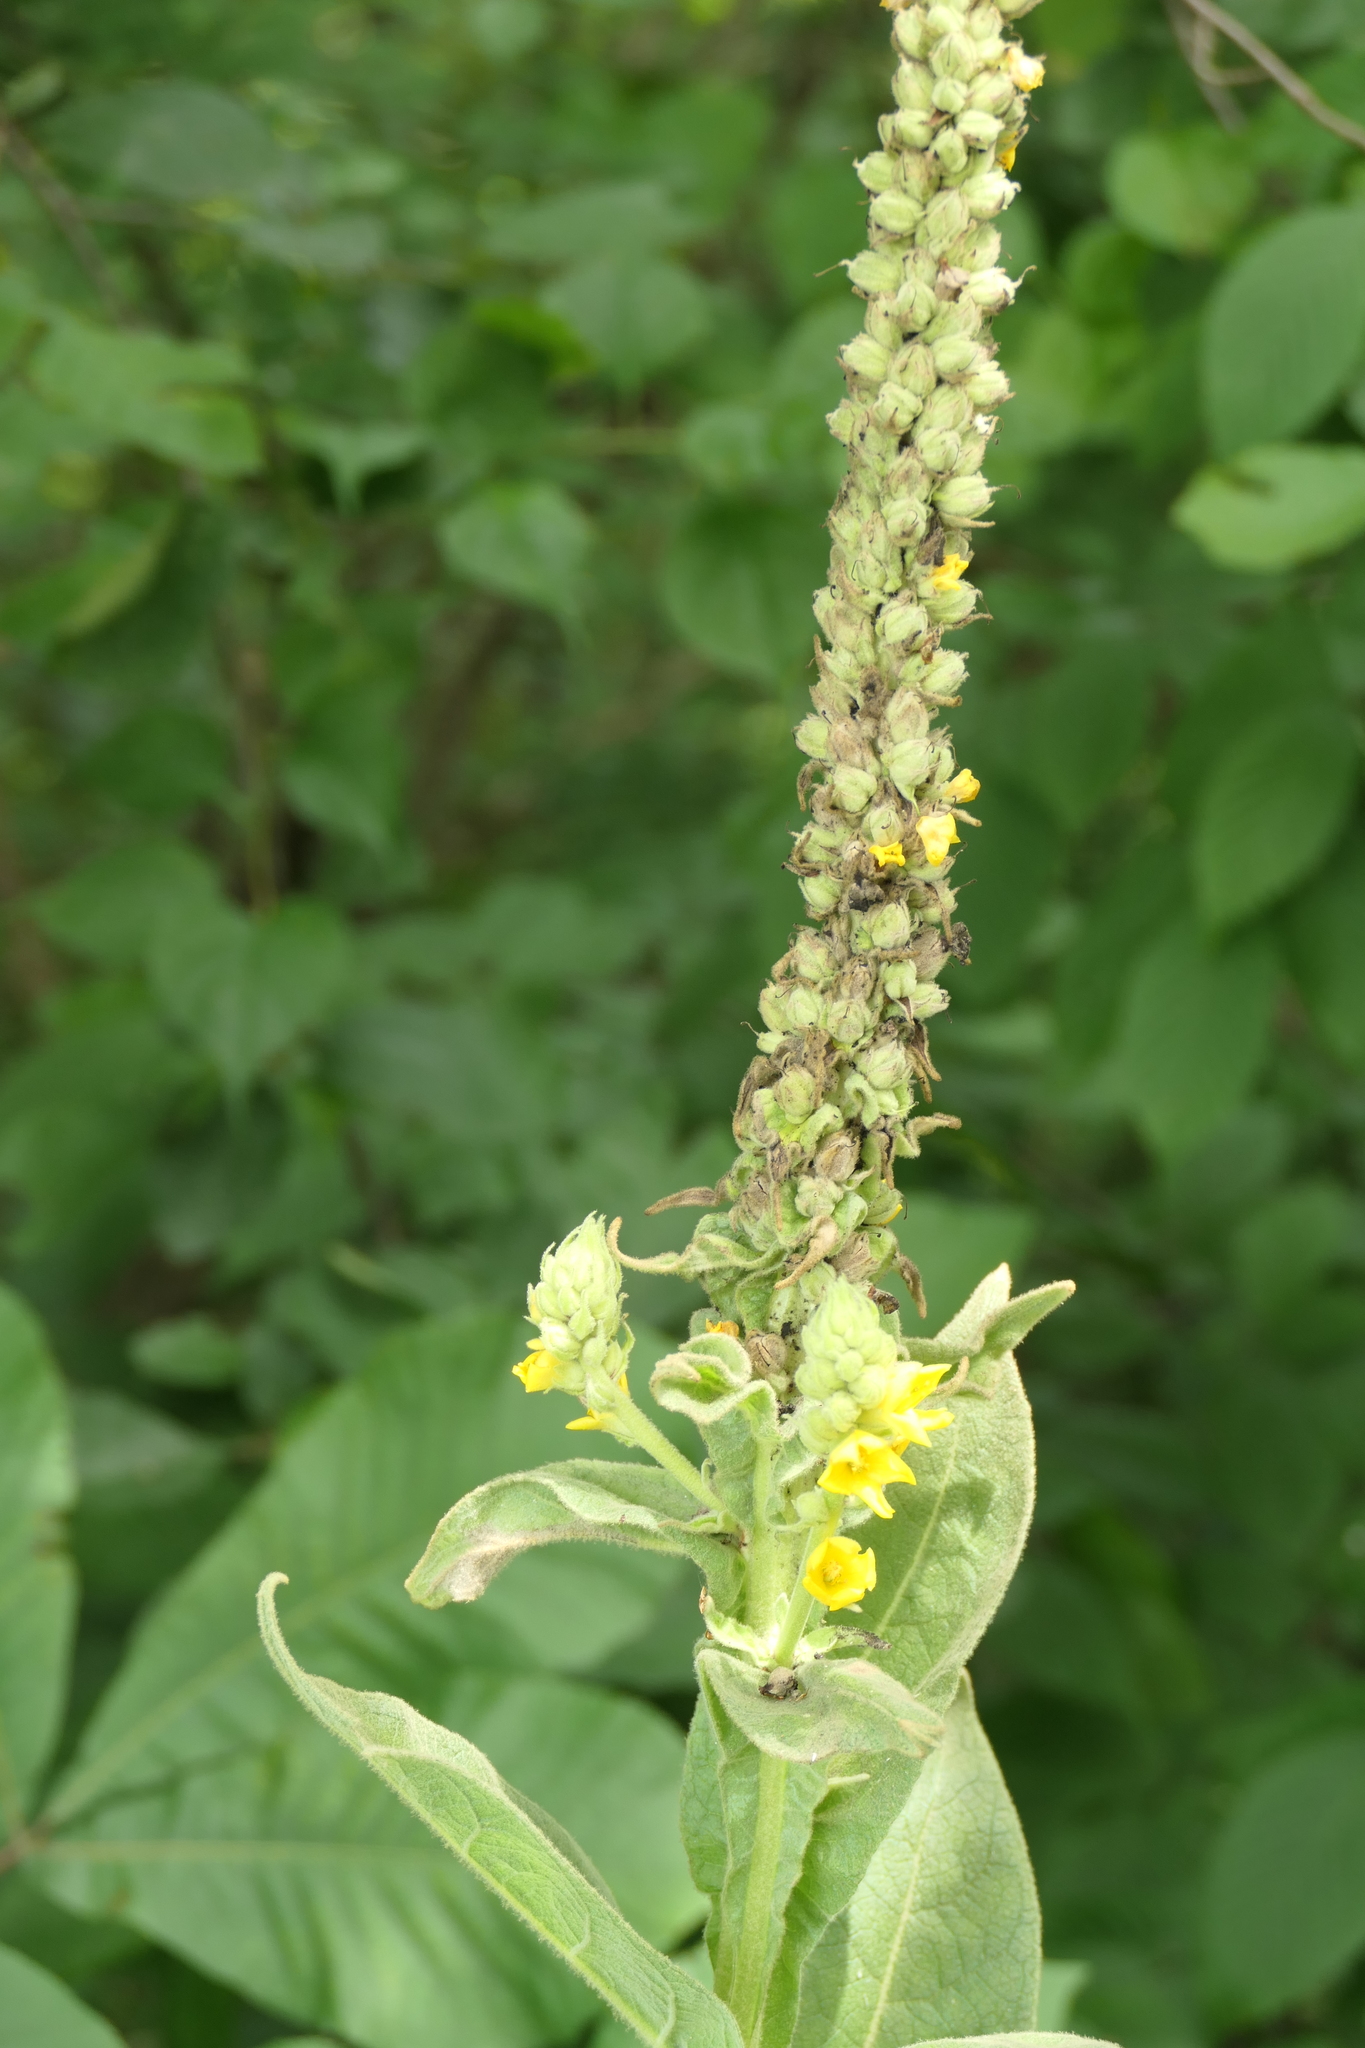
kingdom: Plantae
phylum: Tracheophyta
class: Magnoliopsida
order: Lamiales
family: Scrophulariaceae
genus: Verbascum
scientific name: Verbascum thapsus
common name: Common mullein
